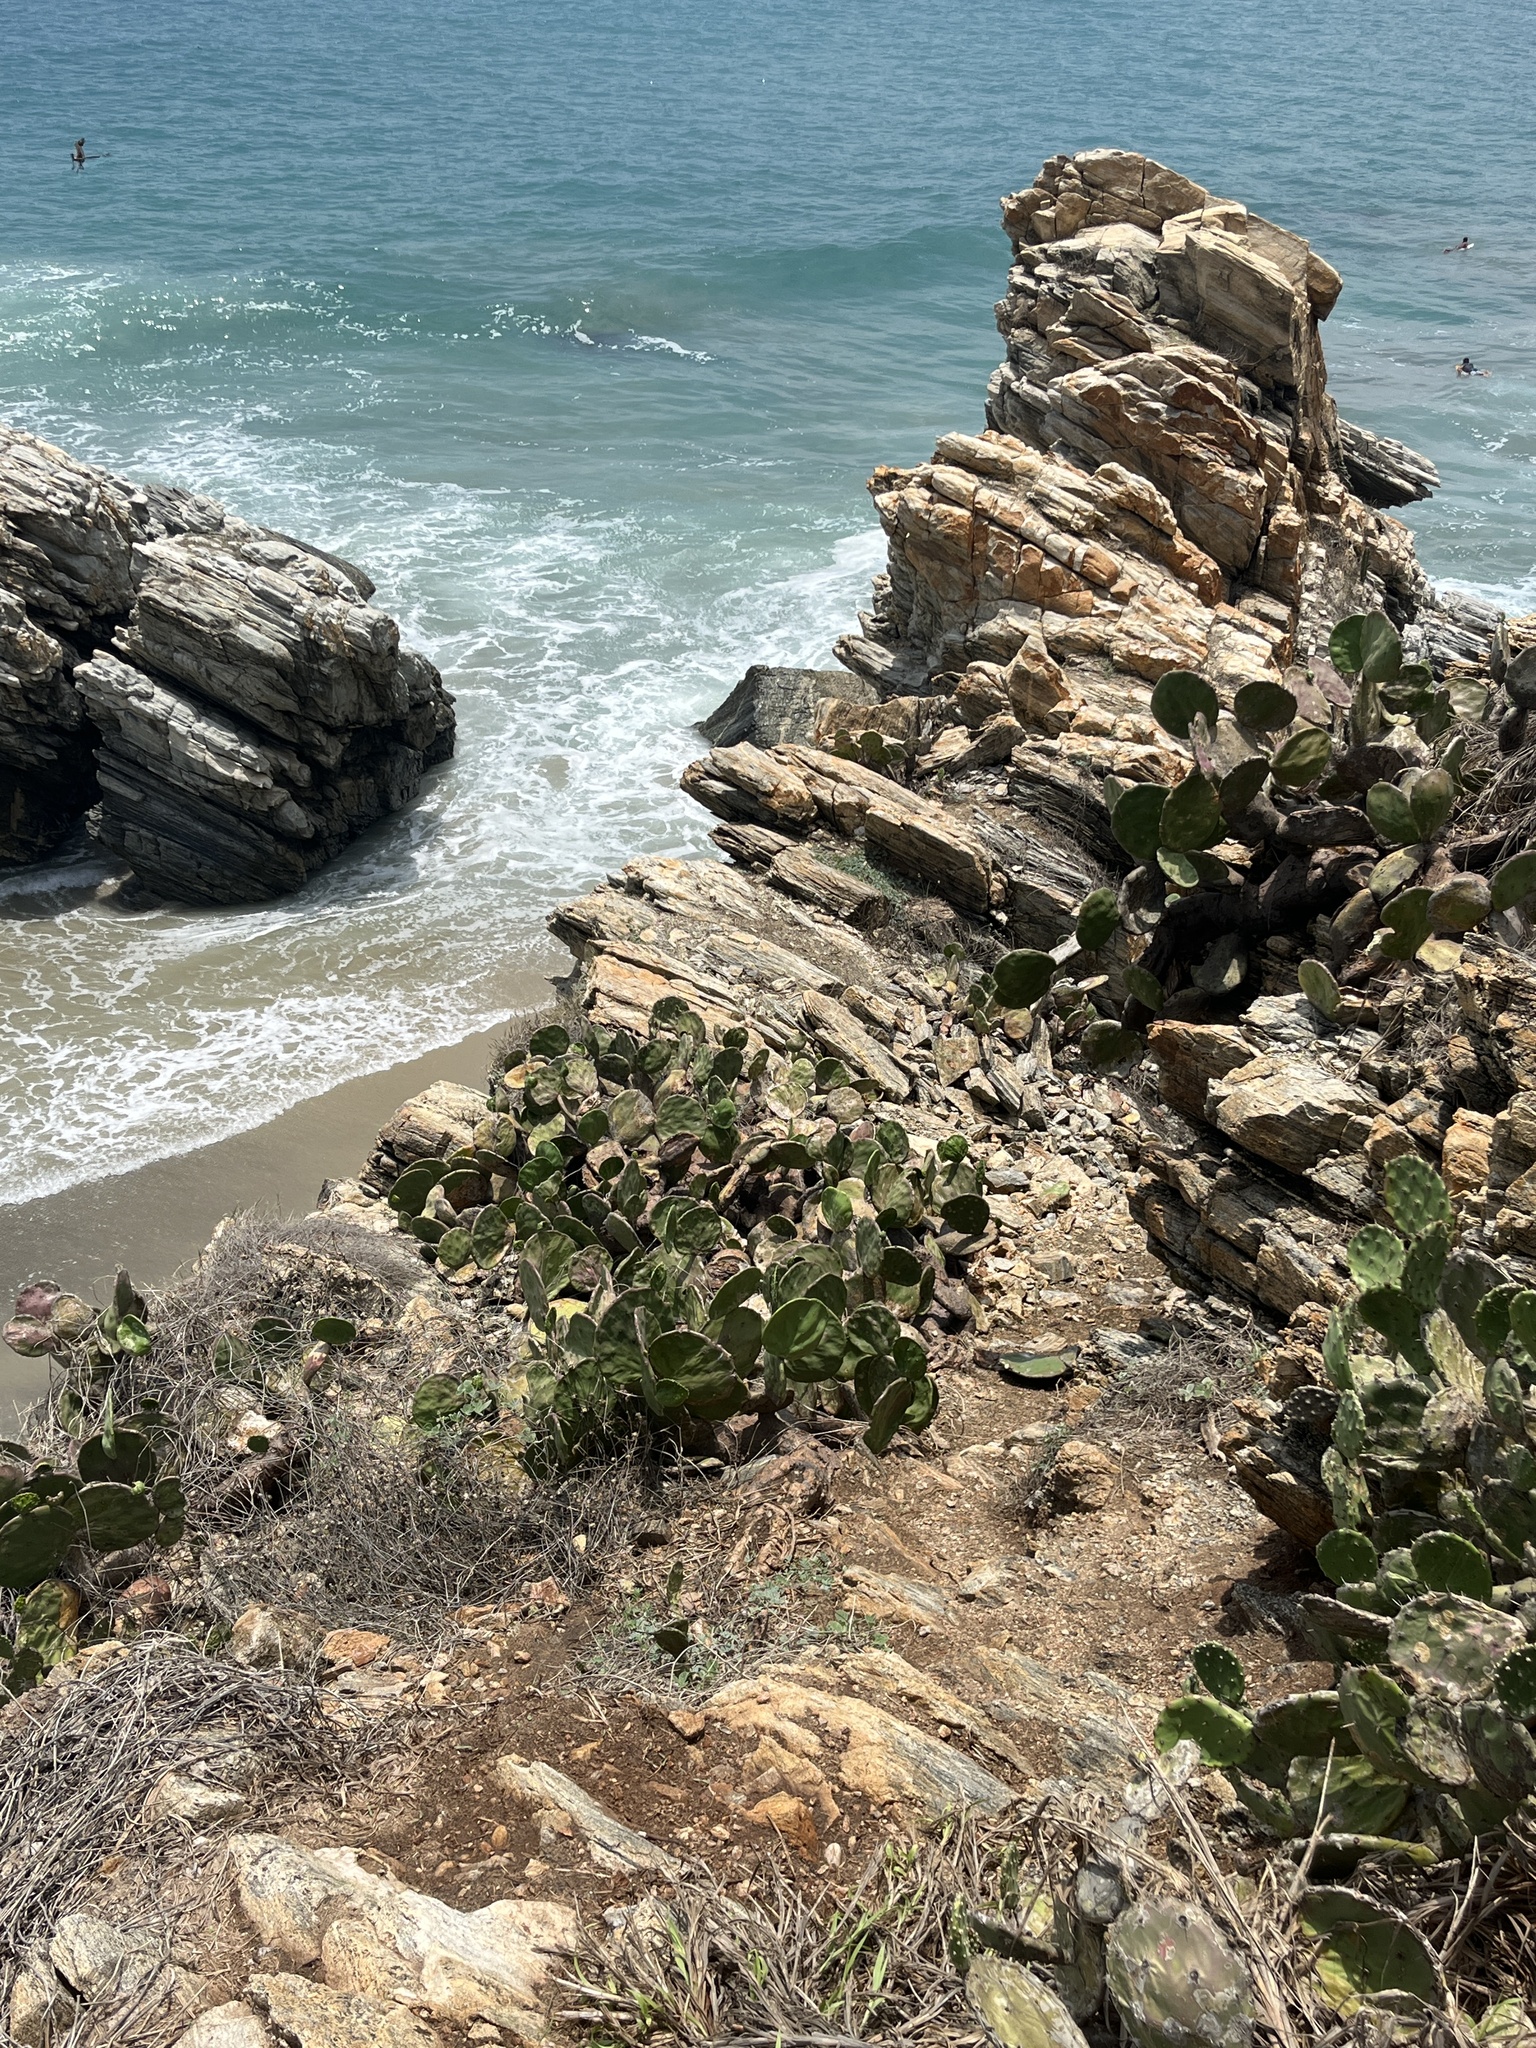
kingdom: Plantae
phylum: Tracheophyta
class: Magnoliopsida
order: Caryophyllales
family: Cactaceae
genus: Opuntia
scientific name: Opuntia stricta
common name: Erect pricklypear
